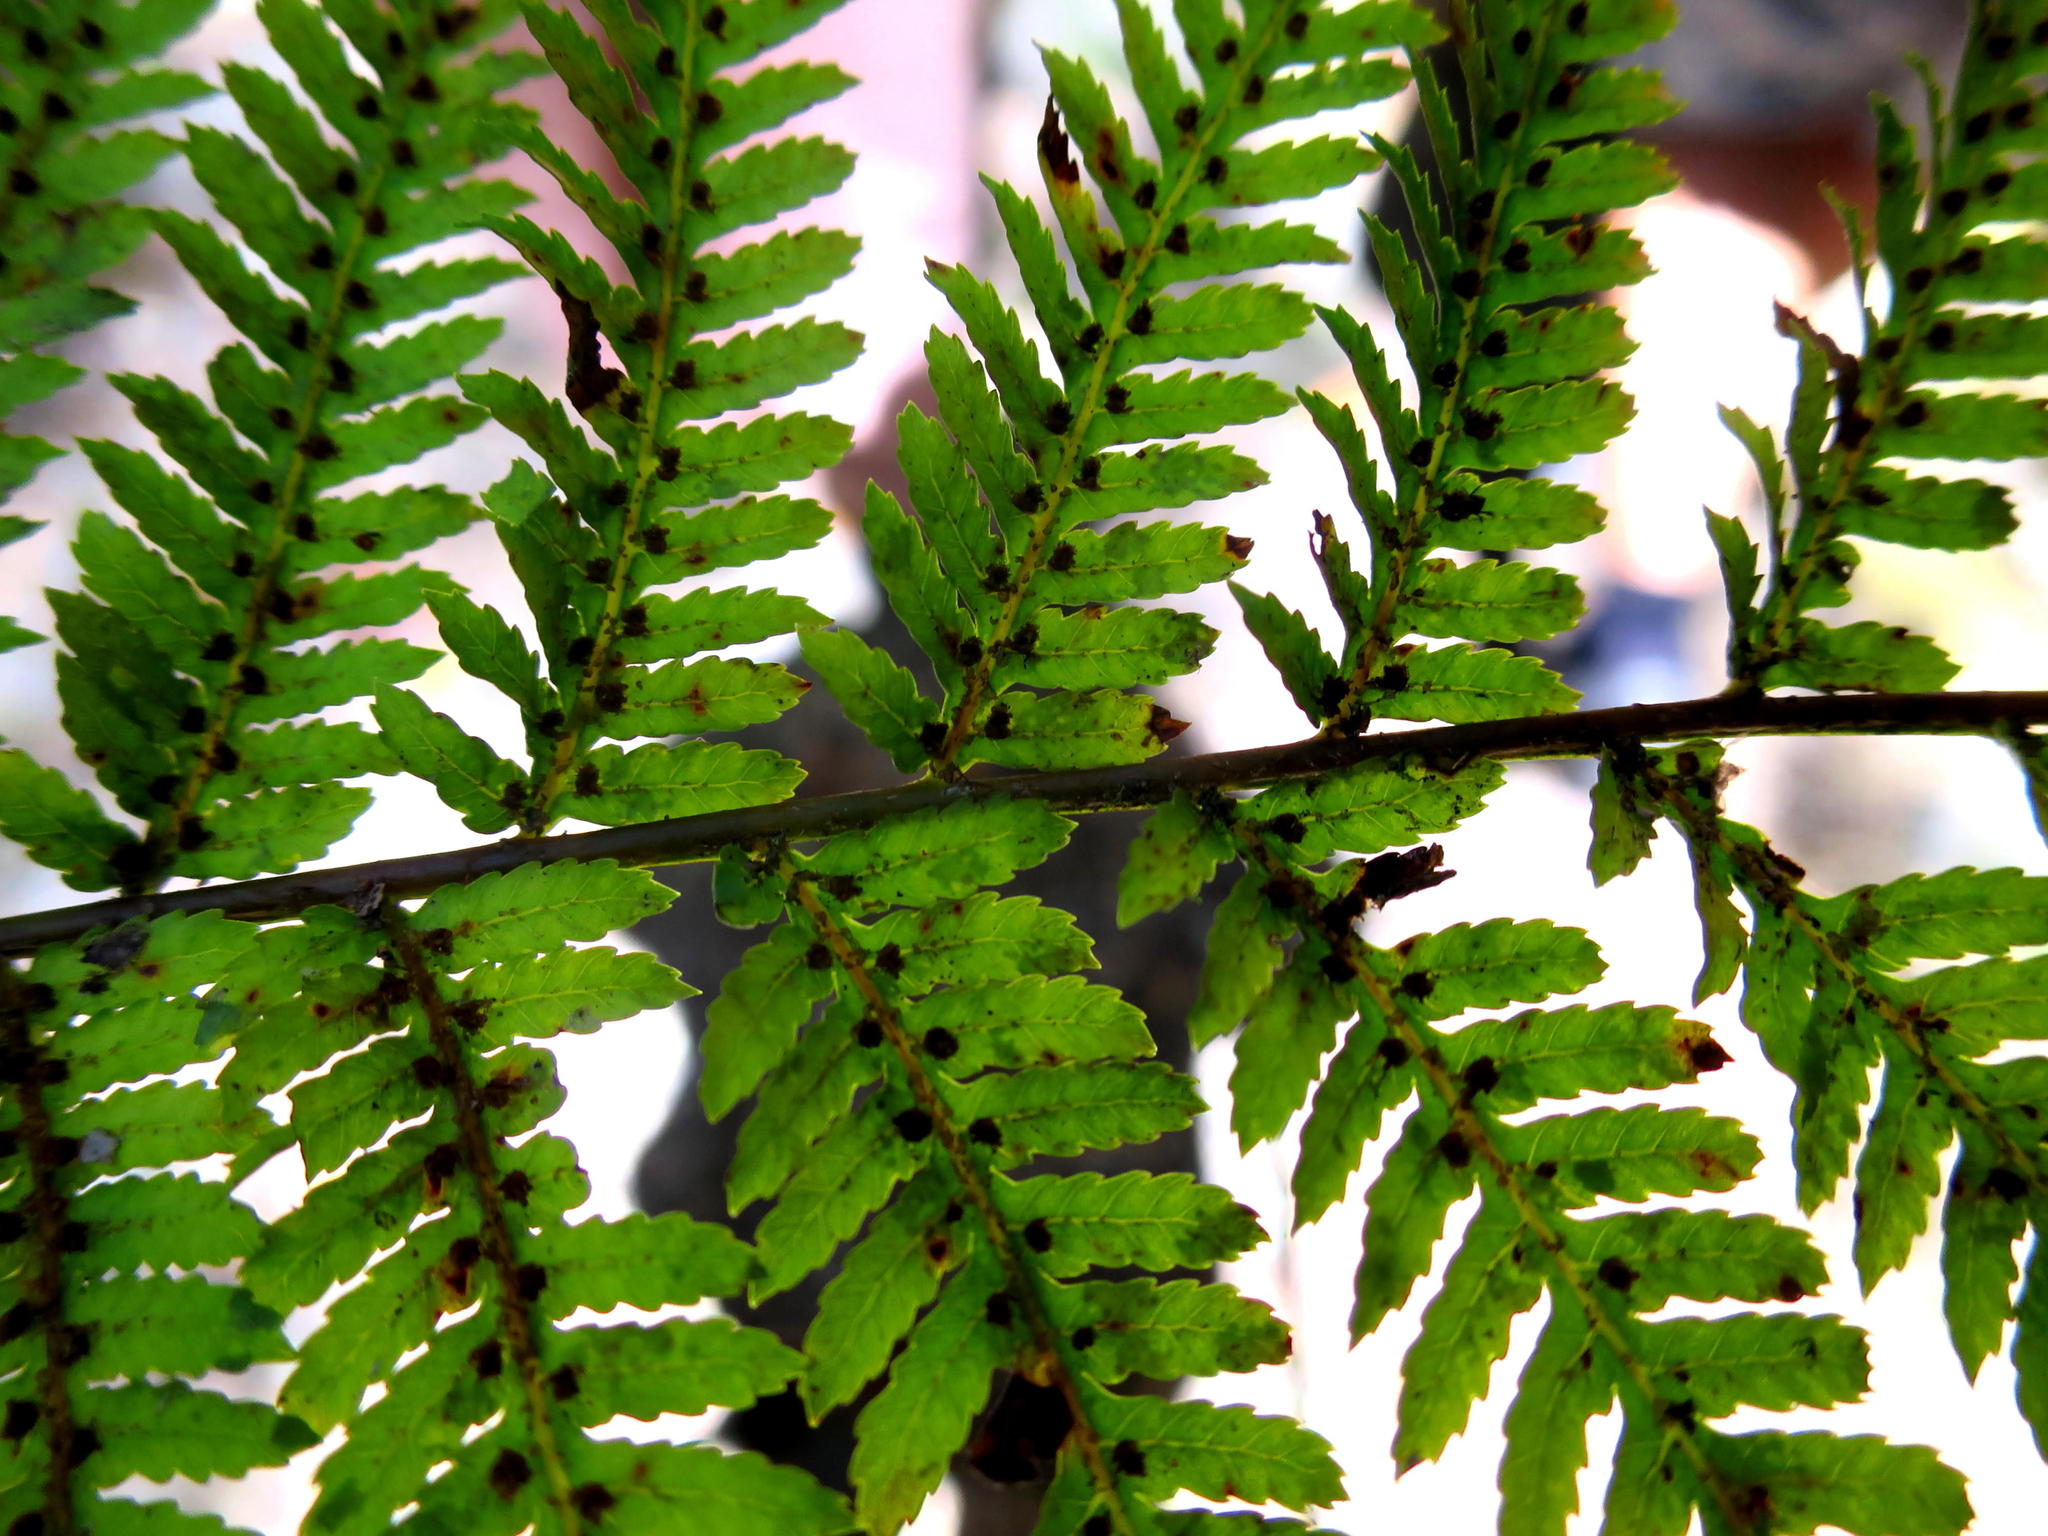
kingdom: Plantae
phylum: Tracheophyta
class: Polypodiopsida
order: Cyatheales
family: Cyatheaceae
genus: Gymnosphaera
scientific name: Gymnosphaera capensis
